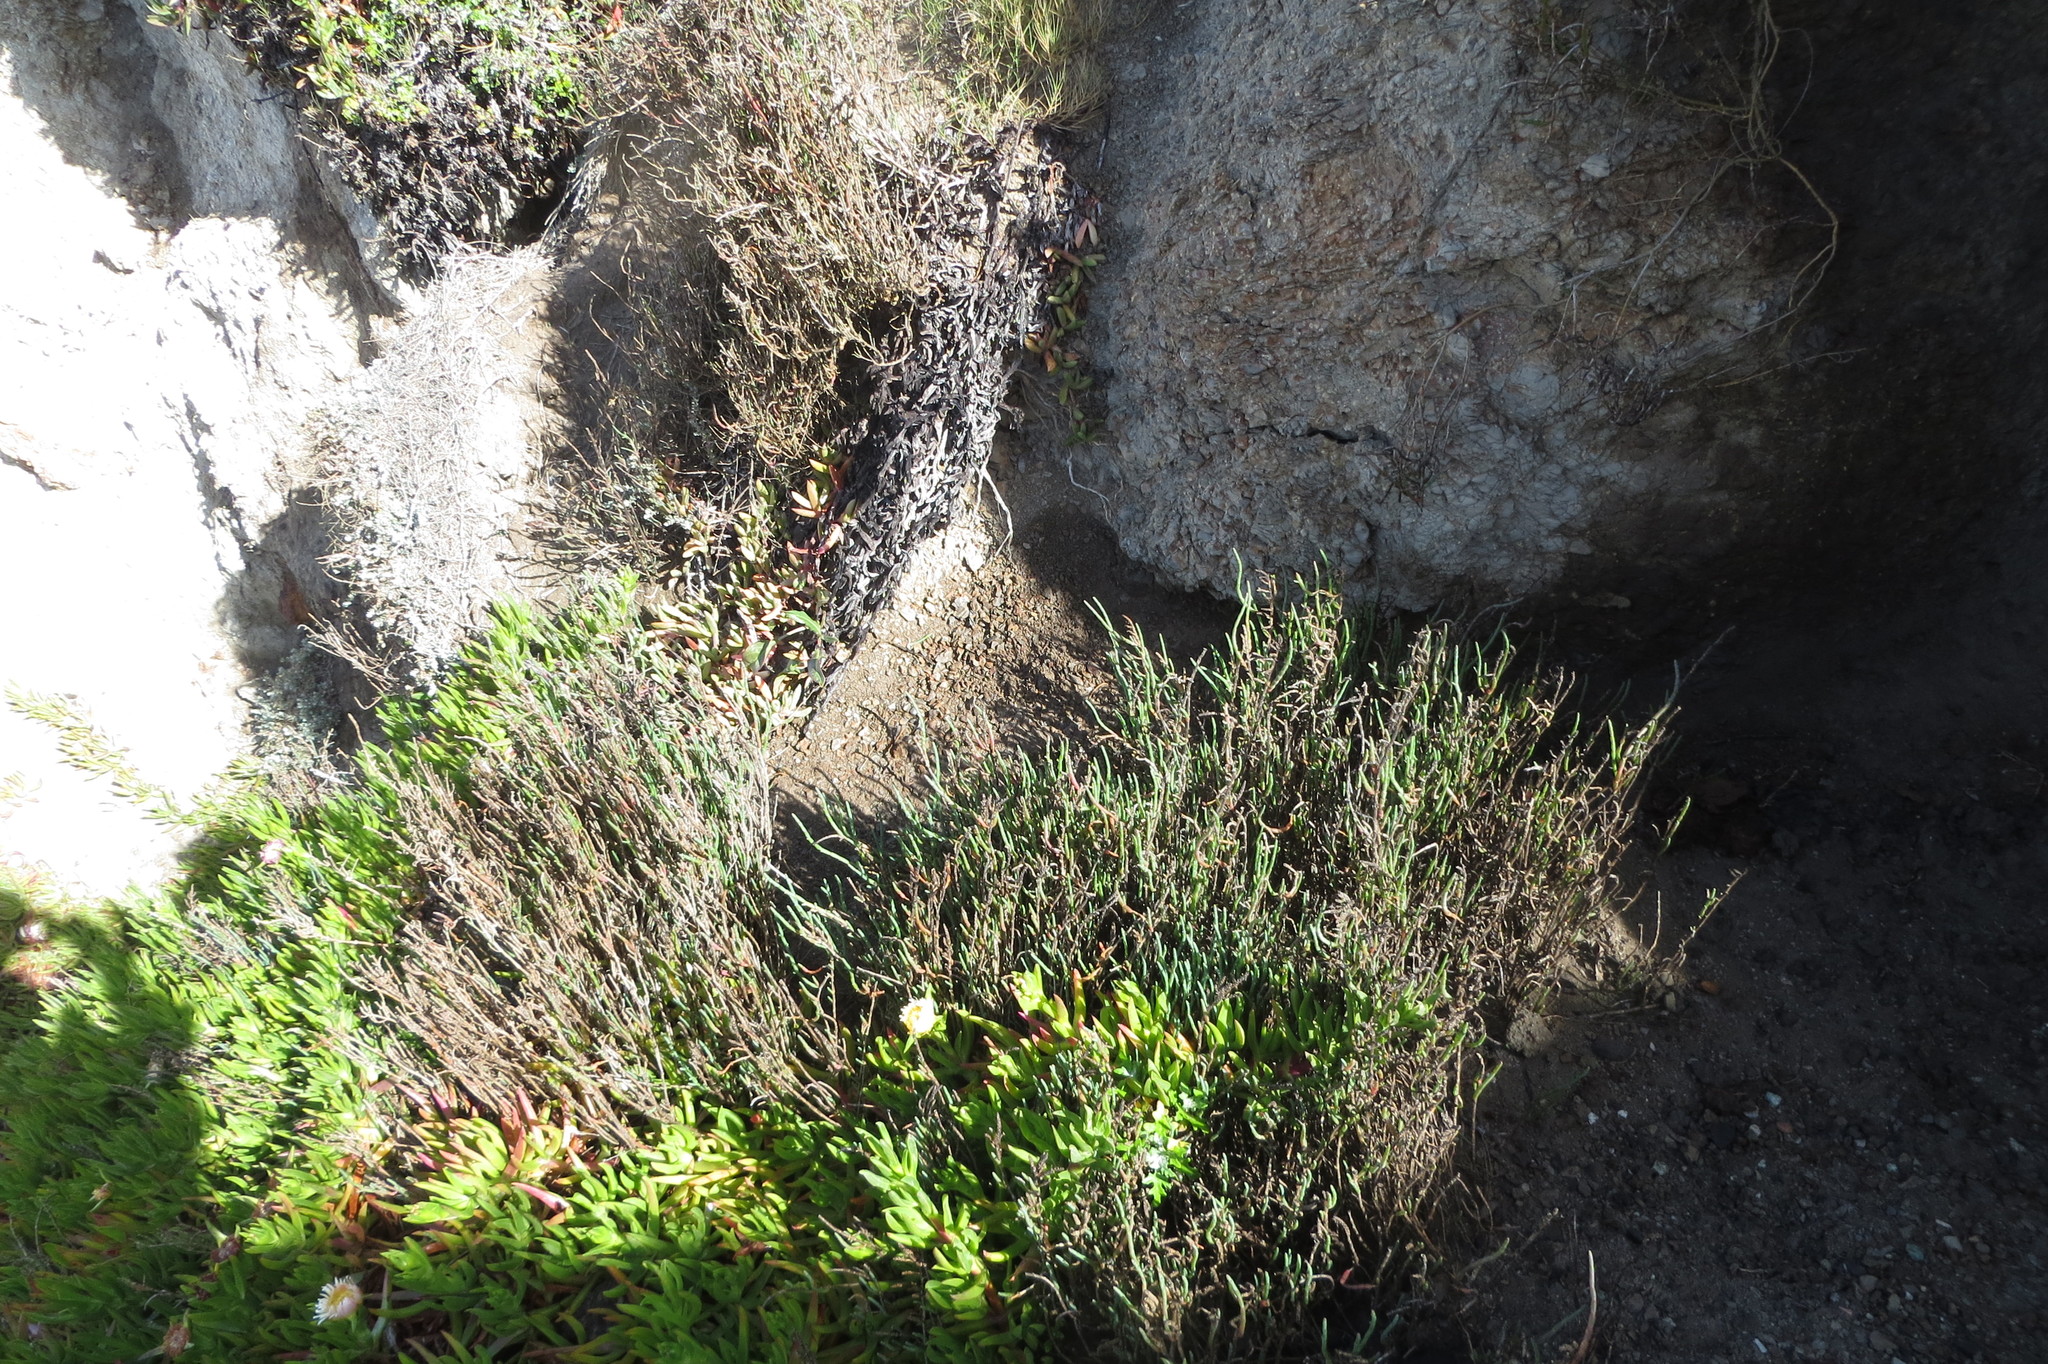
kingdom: Plantae
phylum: Tracheophyta
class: Magnoliopsida
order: Caryophyllales
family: Amaranthaceae
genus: Salicornia
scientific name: Salicornia pacifica
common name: Pacific glasswort
